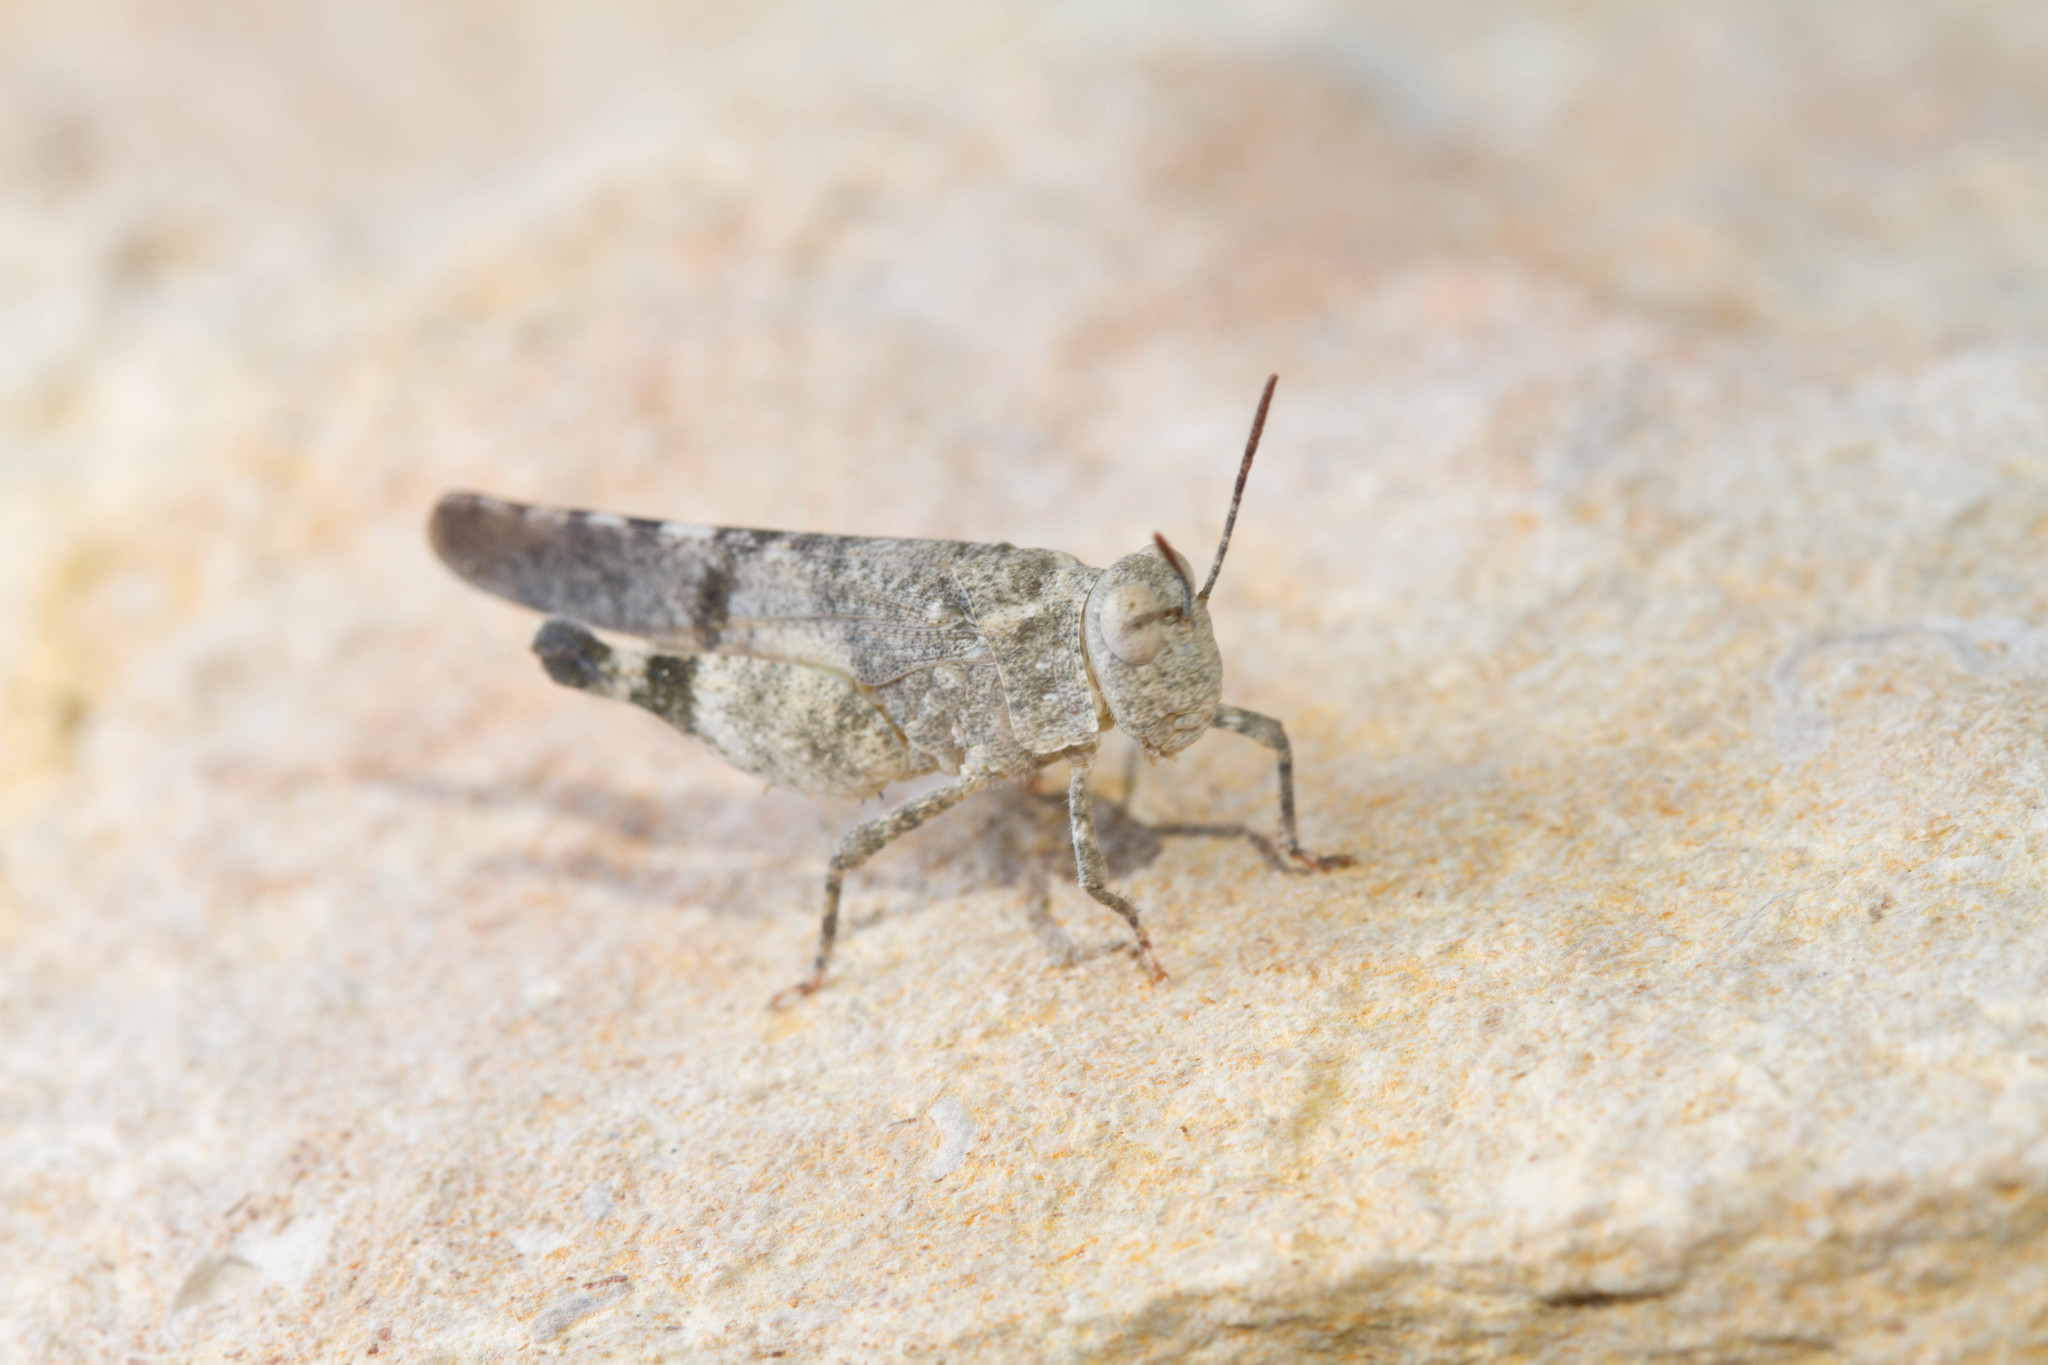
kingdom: Animalia
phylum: Arthropoda
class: Insecta
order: Orthoptera
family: Acrididae
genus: Lactista
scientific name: Lactista azteca
